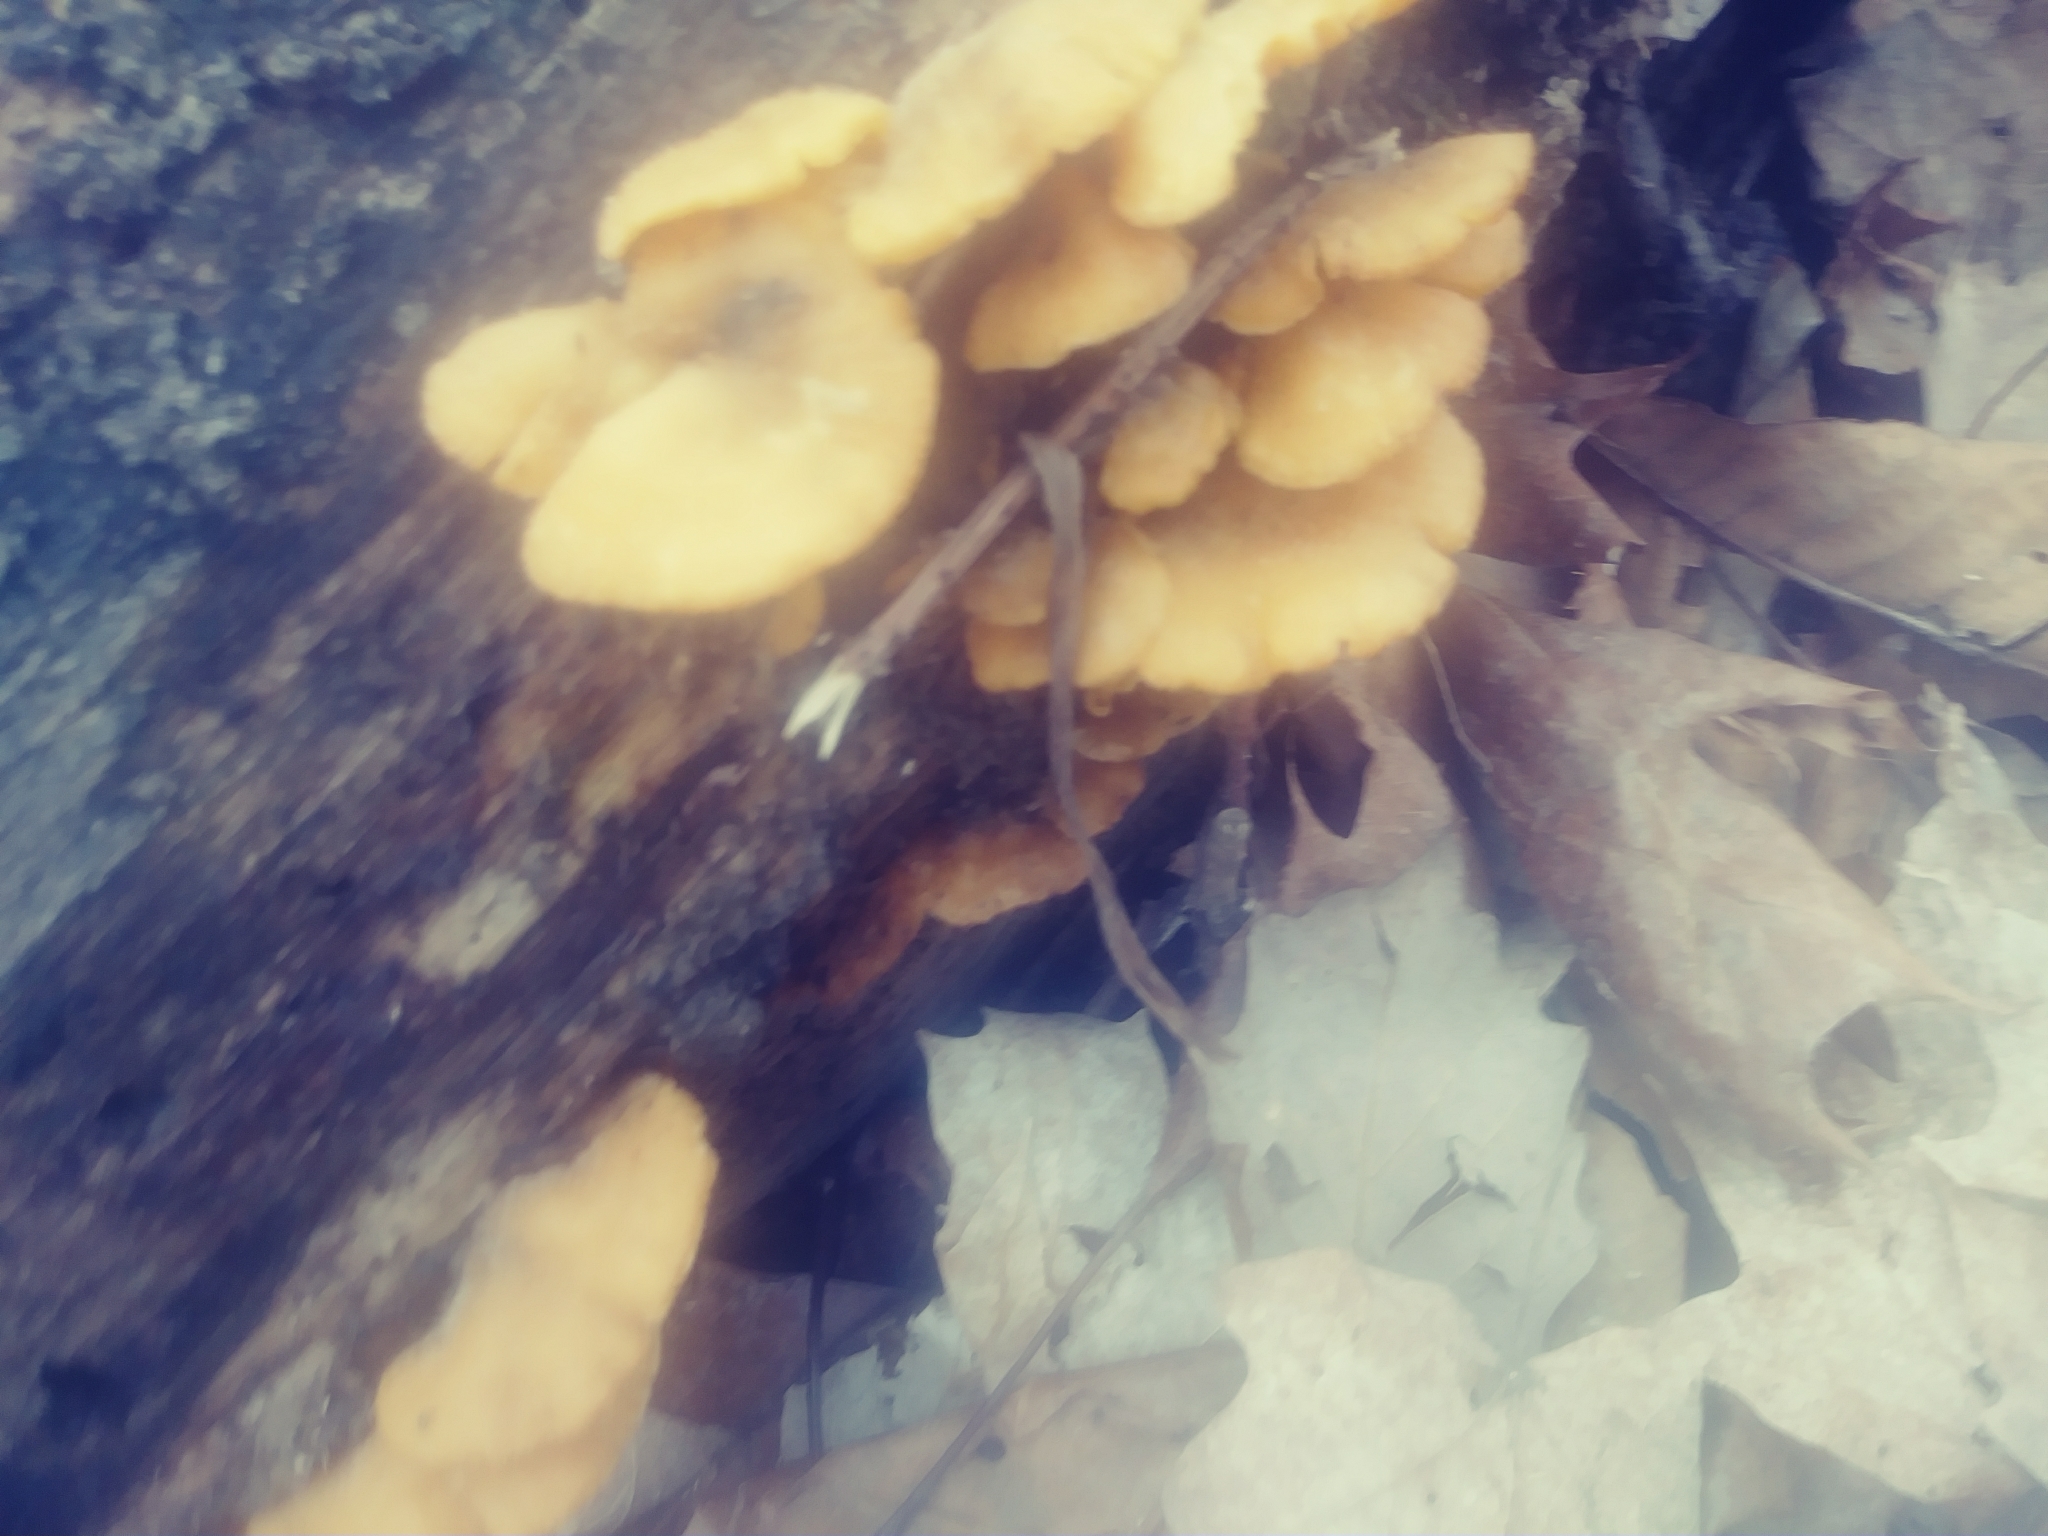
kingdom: Fungi
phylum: Basidiomycota
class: Agaricomycetes
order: Agaricales
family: Phyllotopsidaceae
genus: Phyllotopsis
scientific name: Phyllotopsis nidulans
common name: Orange mock oyster
